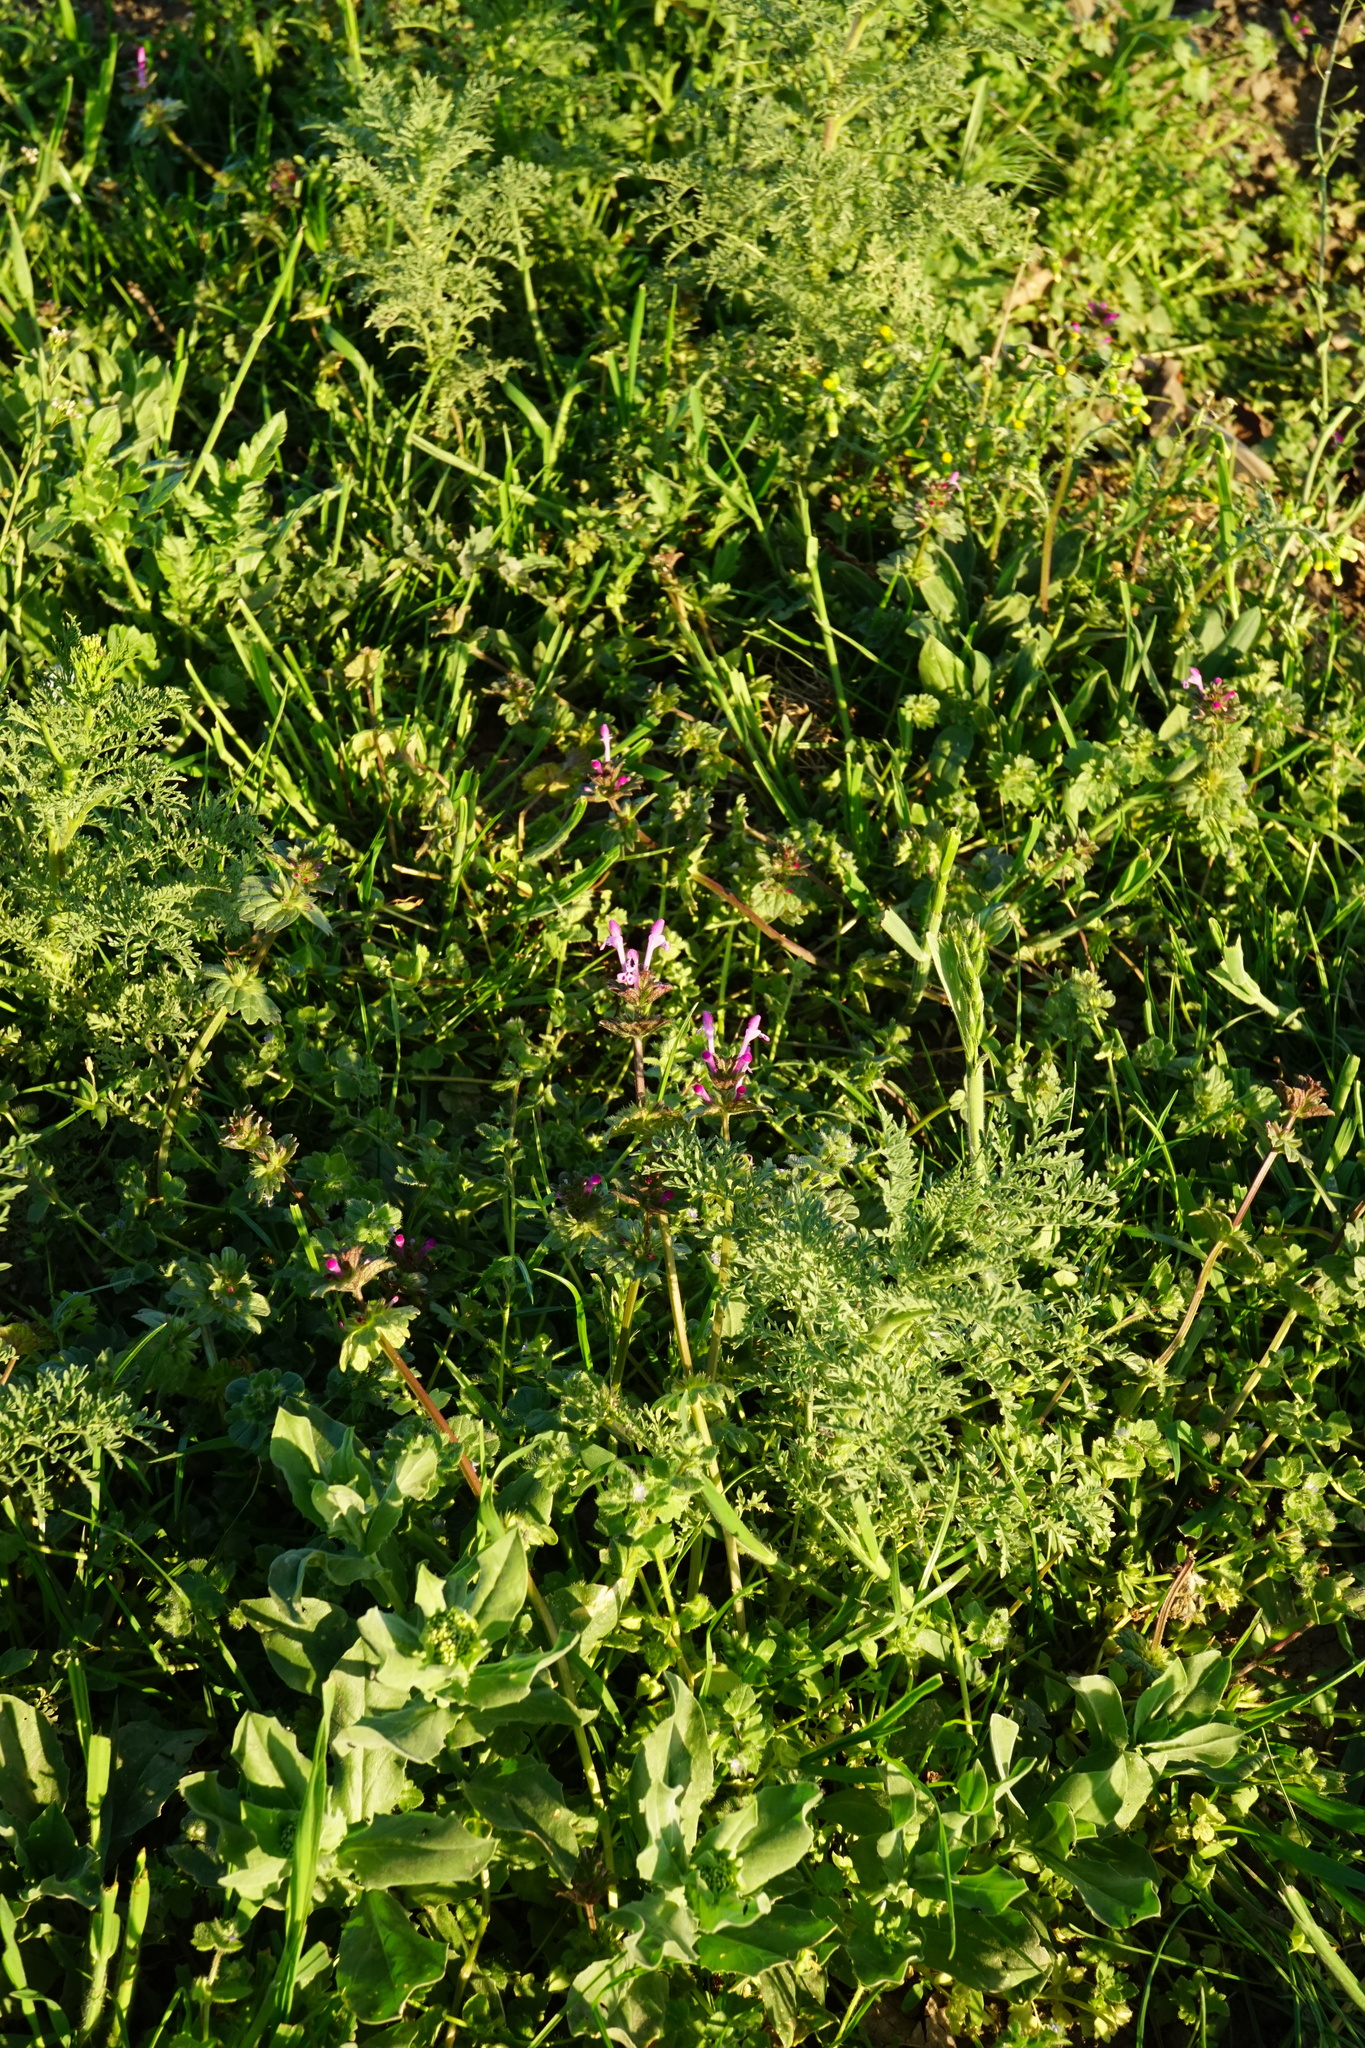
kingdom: Plantae
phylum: Tracheophyta
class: Magnoliopsida
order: Lamiales
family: Lamiaceae
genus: Lamium
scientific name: Lamium amplexicaule
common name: Henbit dead-nettle
